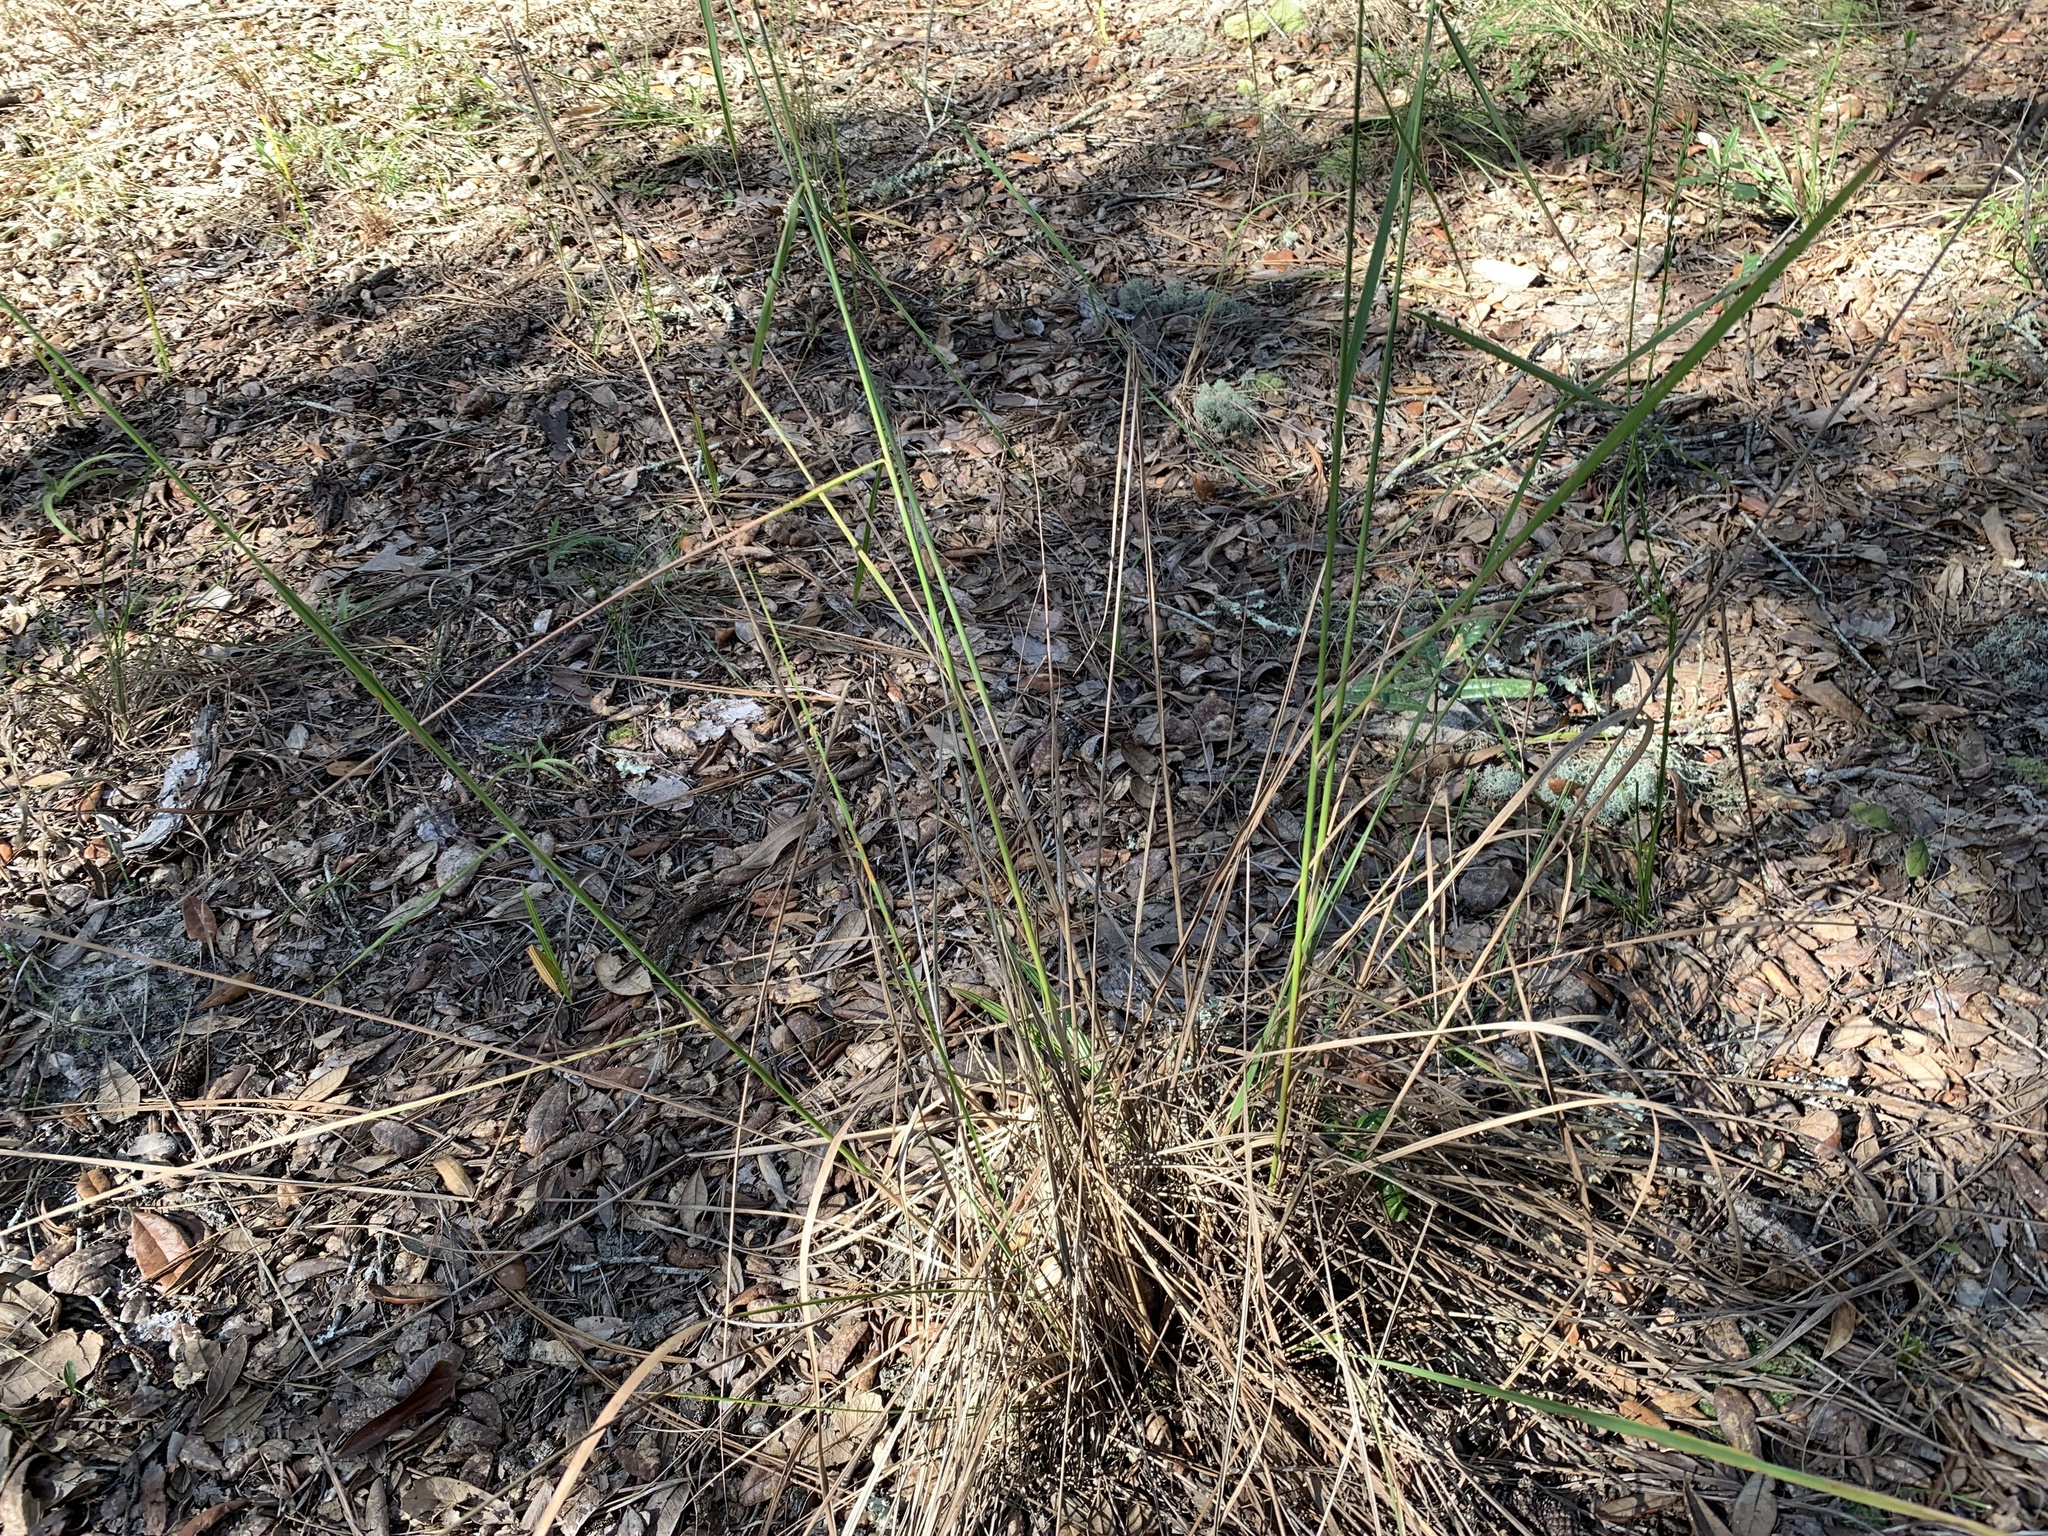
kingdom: Plantae
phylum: Tracheophyta
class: Liliopsida
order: Poales
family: Poaceae
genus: Sorghastrum
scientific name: Sorghastrum secundum
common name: Lopsided indian grass
